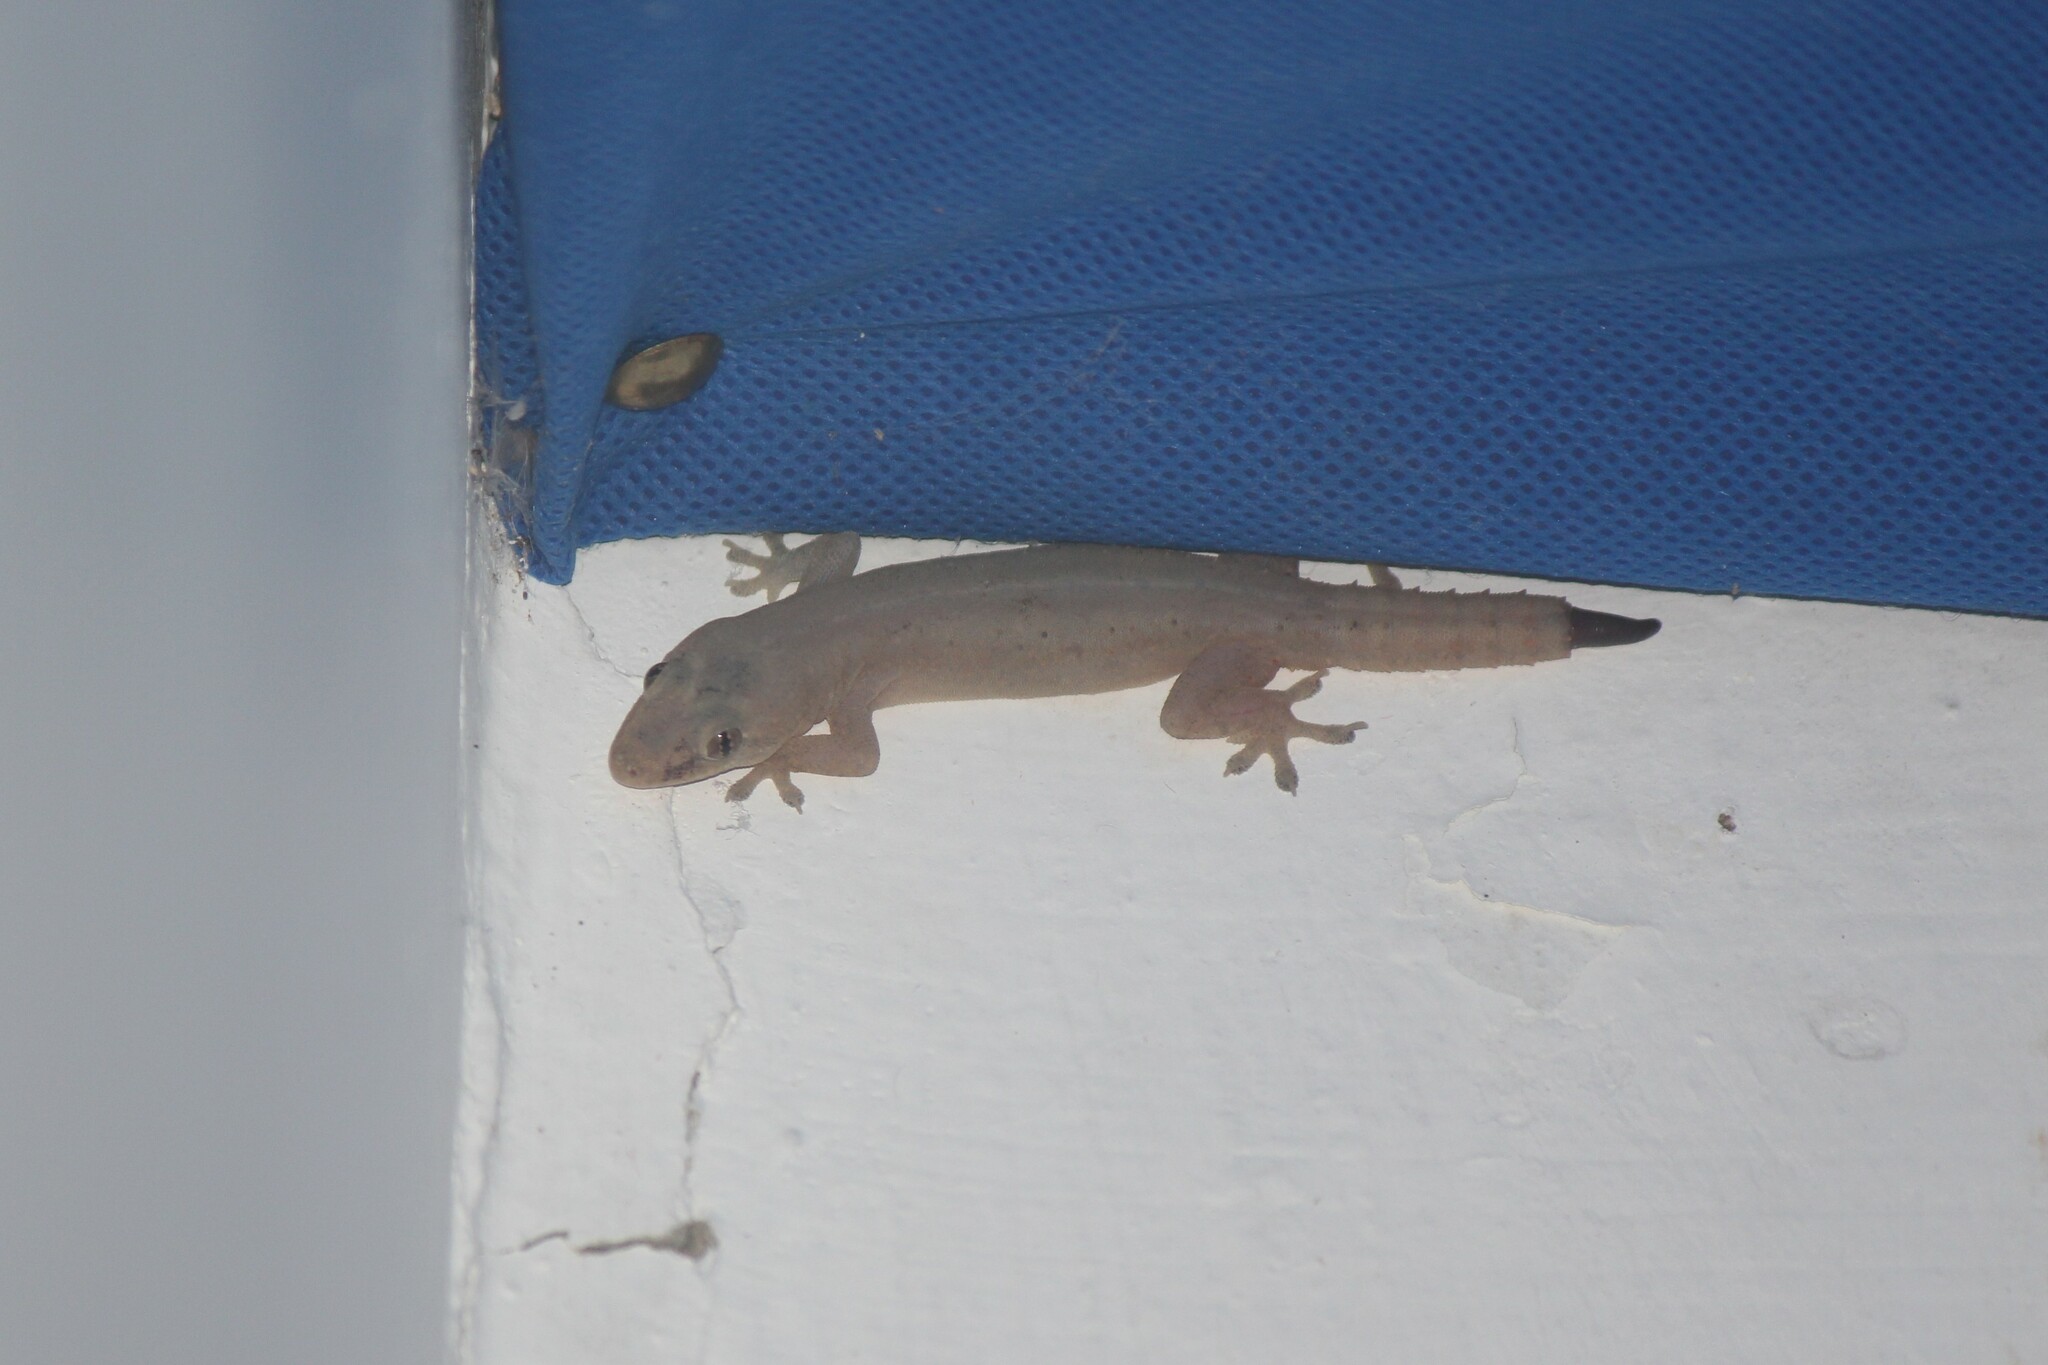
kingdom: Animalia
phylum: Chordata
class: Squamata
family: Gekkonidae
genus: Hemidactylus
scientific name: Hemidactylus frenatus
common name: Common house gecko
